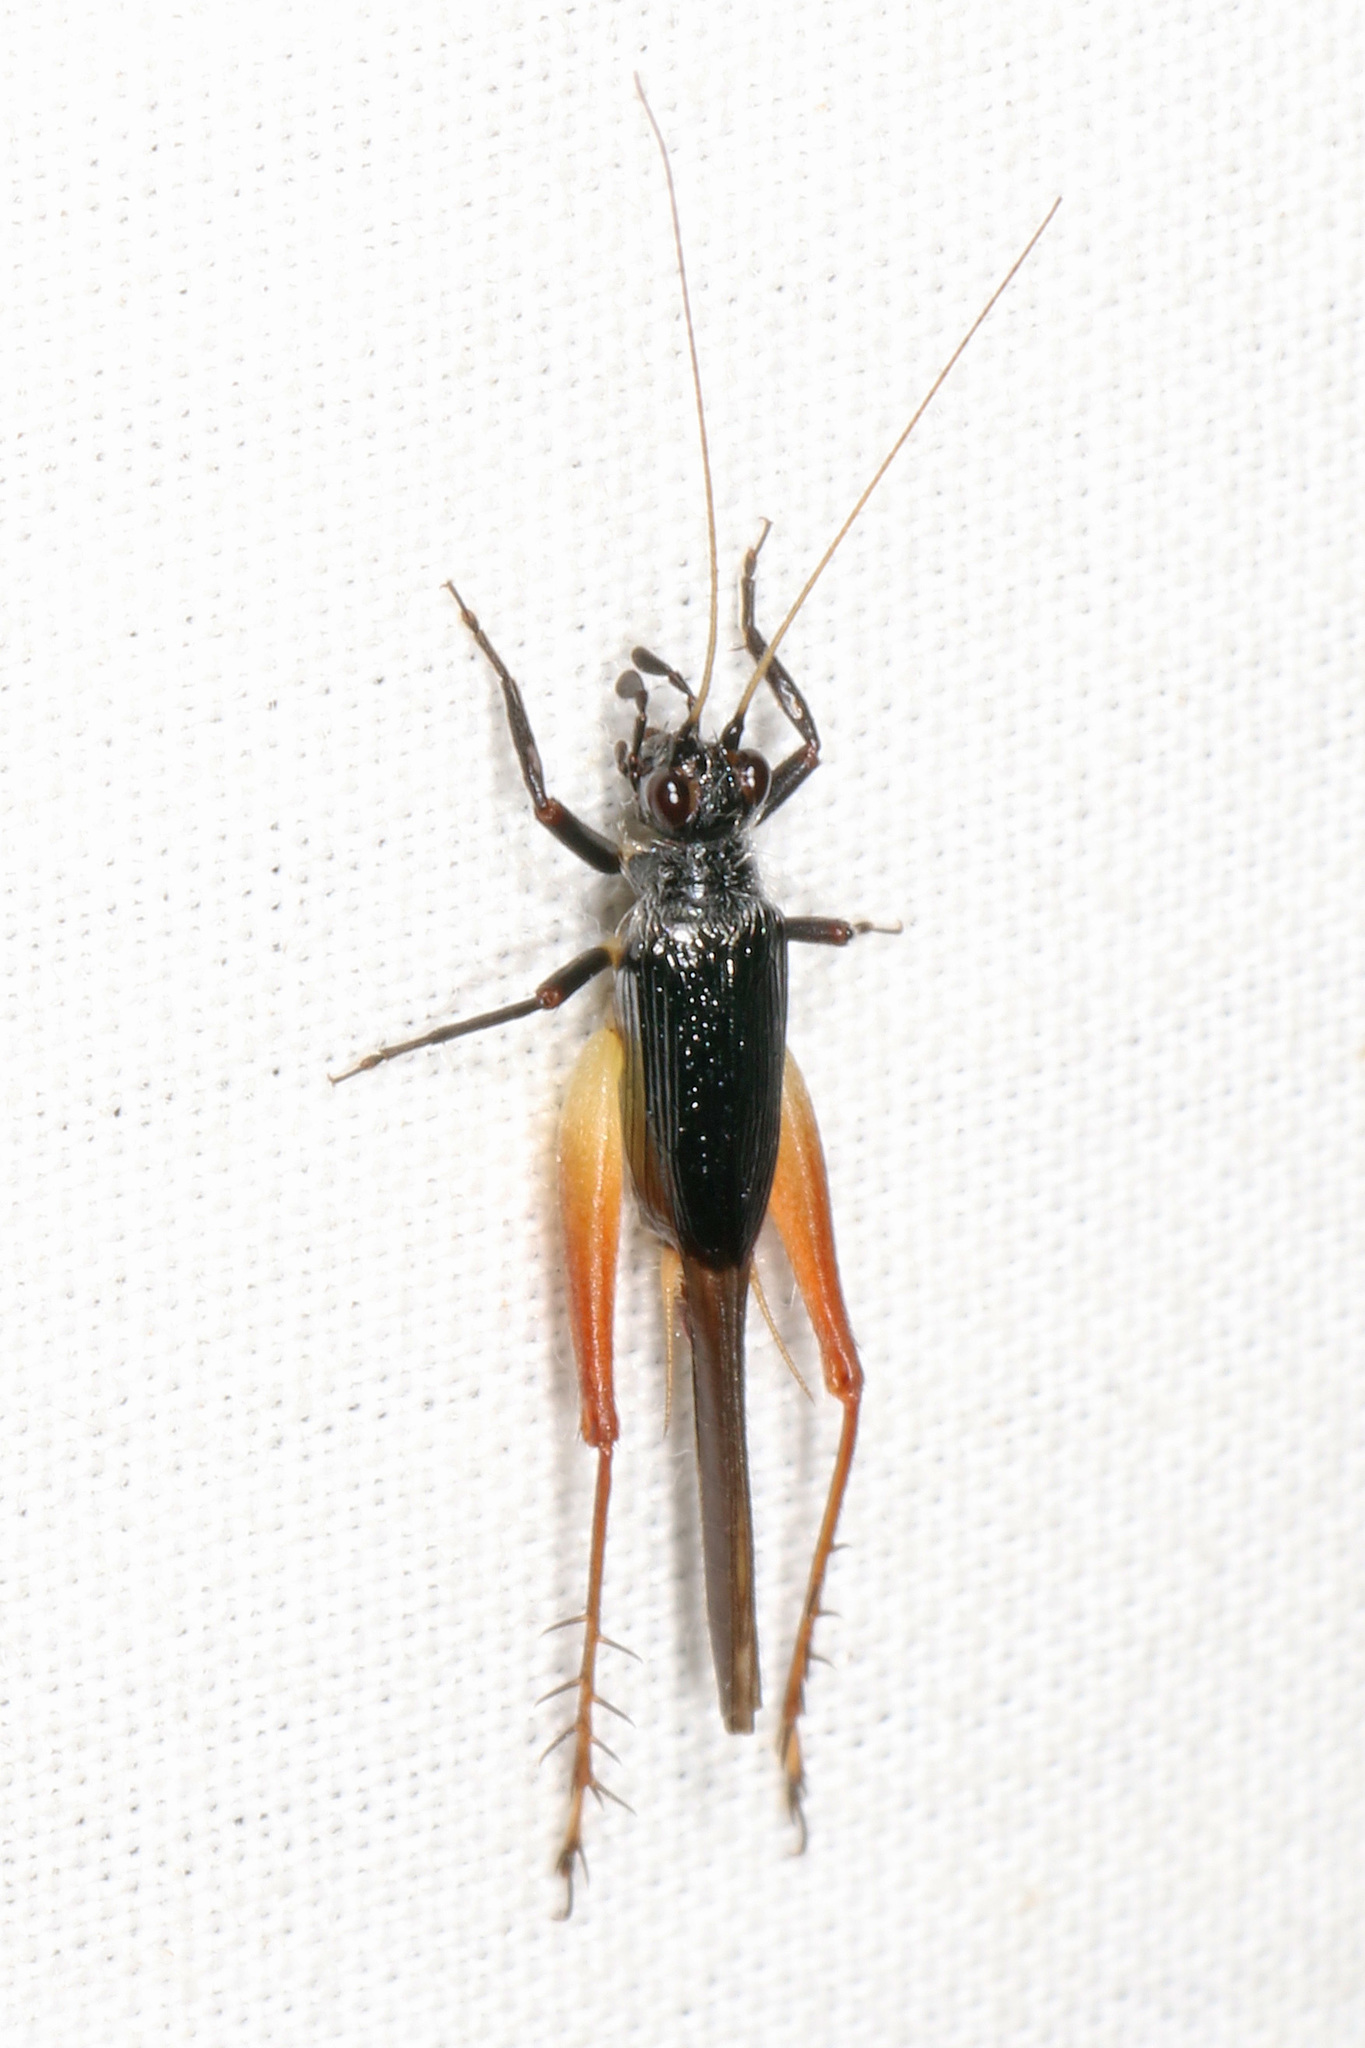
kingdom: Animalia
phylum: Arthropoda
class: Insecta
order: Orthoptera
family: Trigonidiidae
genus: Trigonidium
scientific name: Trigonidium cicindeloides
